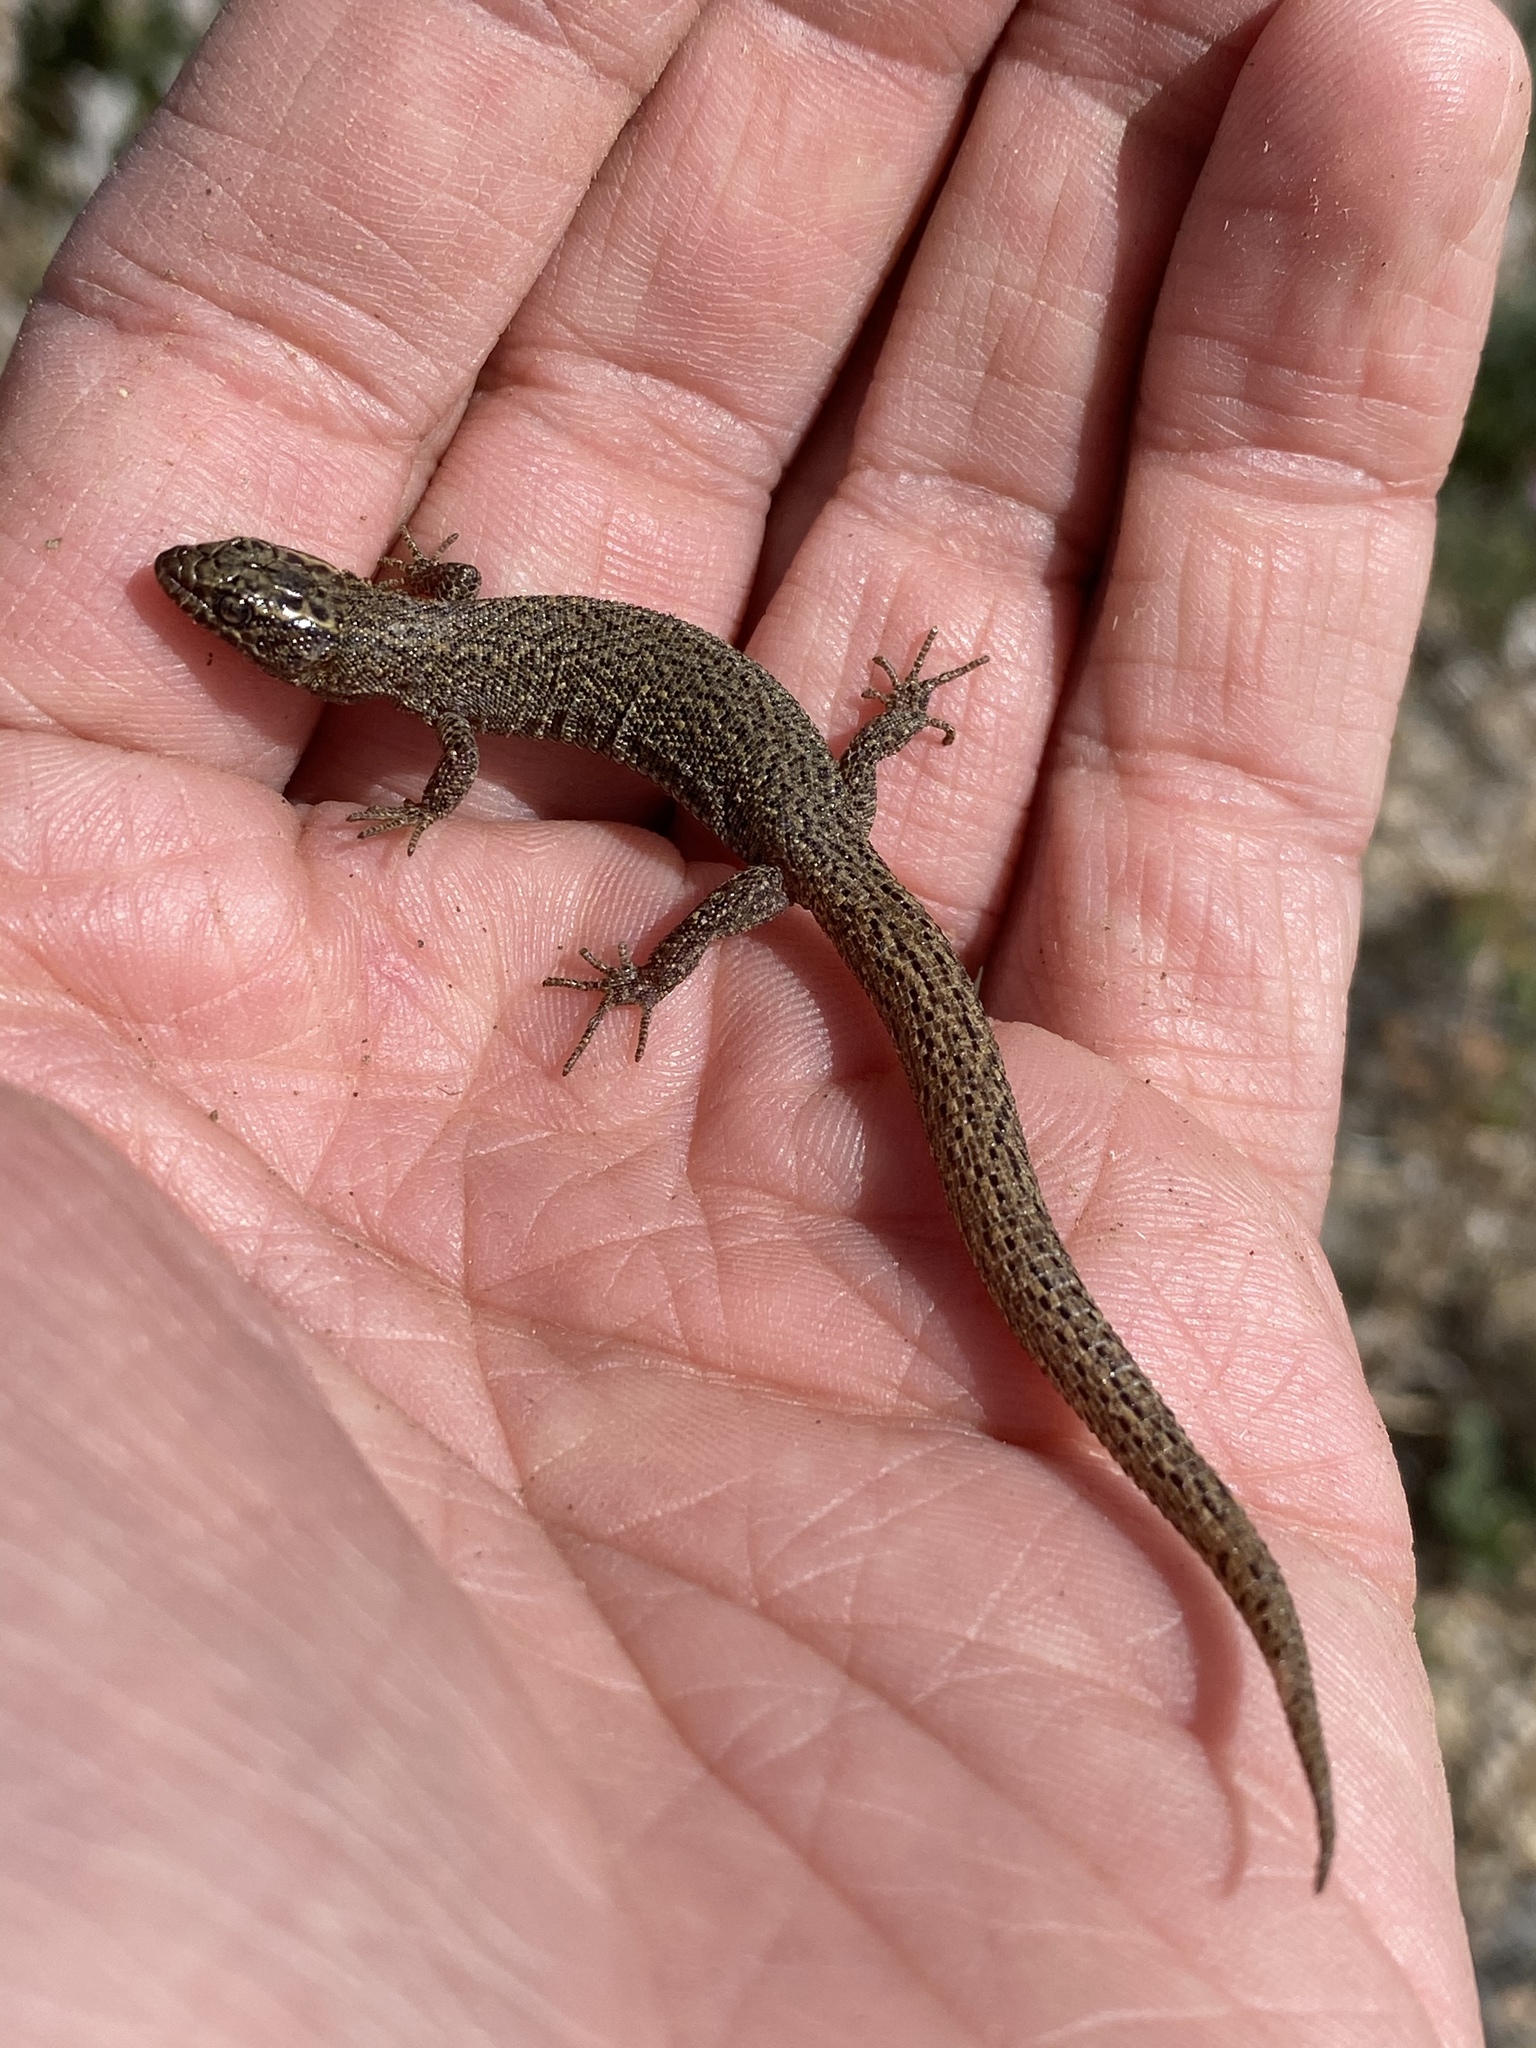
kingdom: Animalia
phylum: Chordata
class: Squamata
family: Xantusiidae
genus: Xantusia
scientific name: Xantusia vigilis
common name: Desert night lizard
